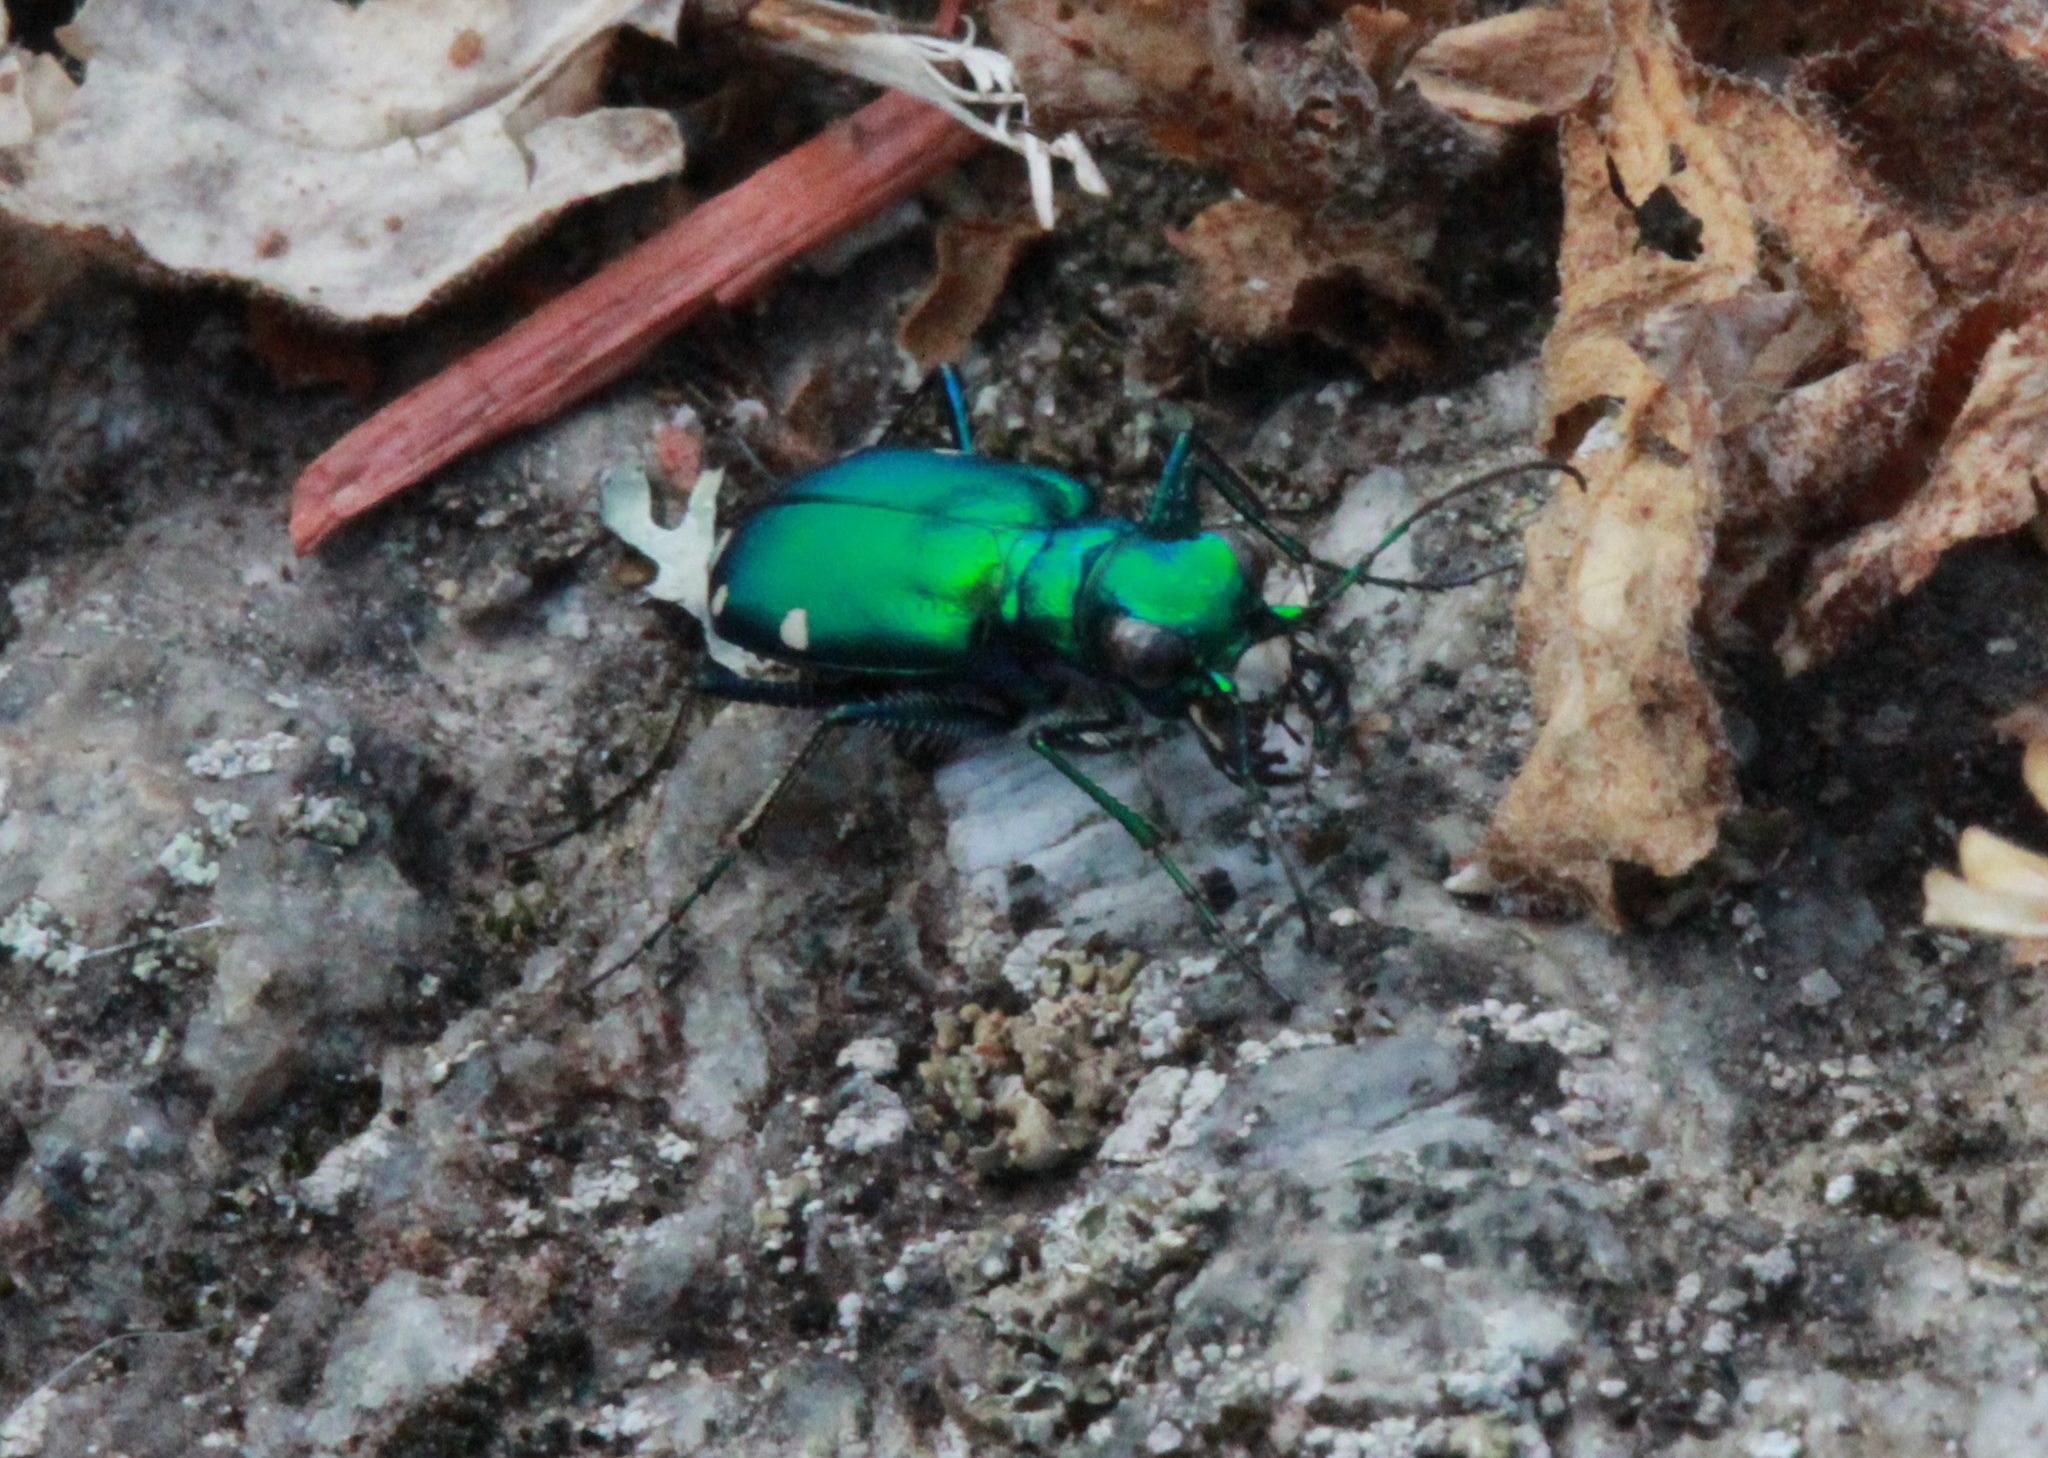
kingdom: Animalia
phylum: Arthropoda
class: Insecta
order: Coleoptera
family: Carabidae
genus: Cicindela
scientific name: Cicindela sexguttata
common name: Six-spotted tiger beetle
